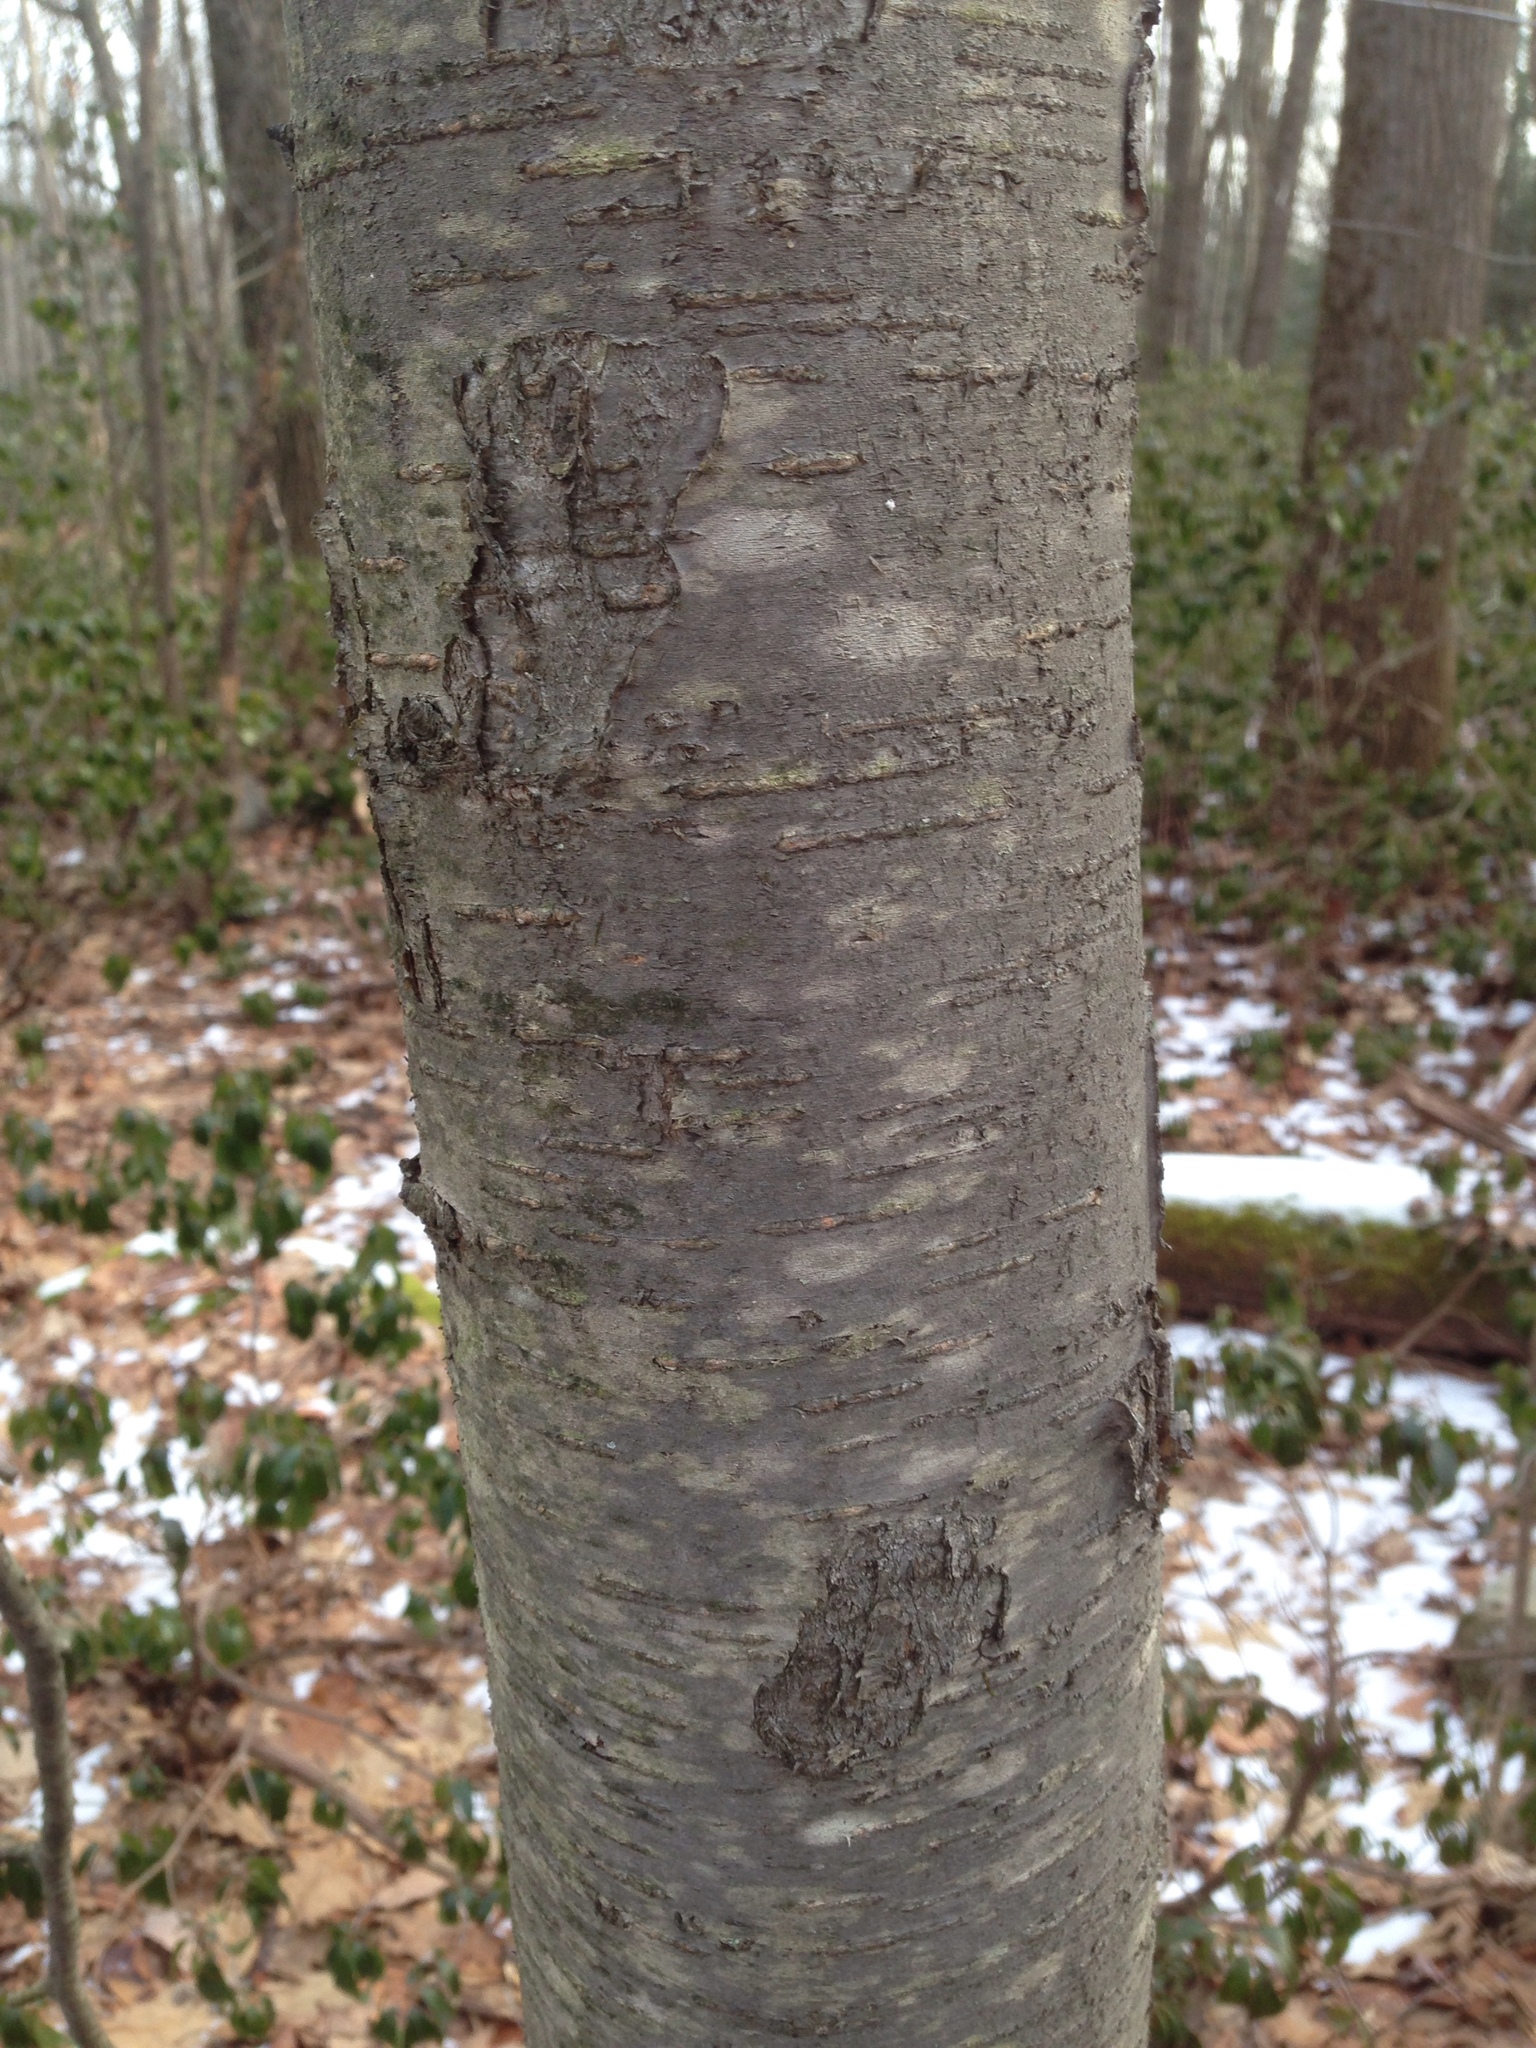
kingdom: Plantae
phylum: Tracheophyta
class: Magnoliopsida
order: Fagales
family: Betulaceae
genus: Betula
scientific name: Betula lenta
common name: Black birch
